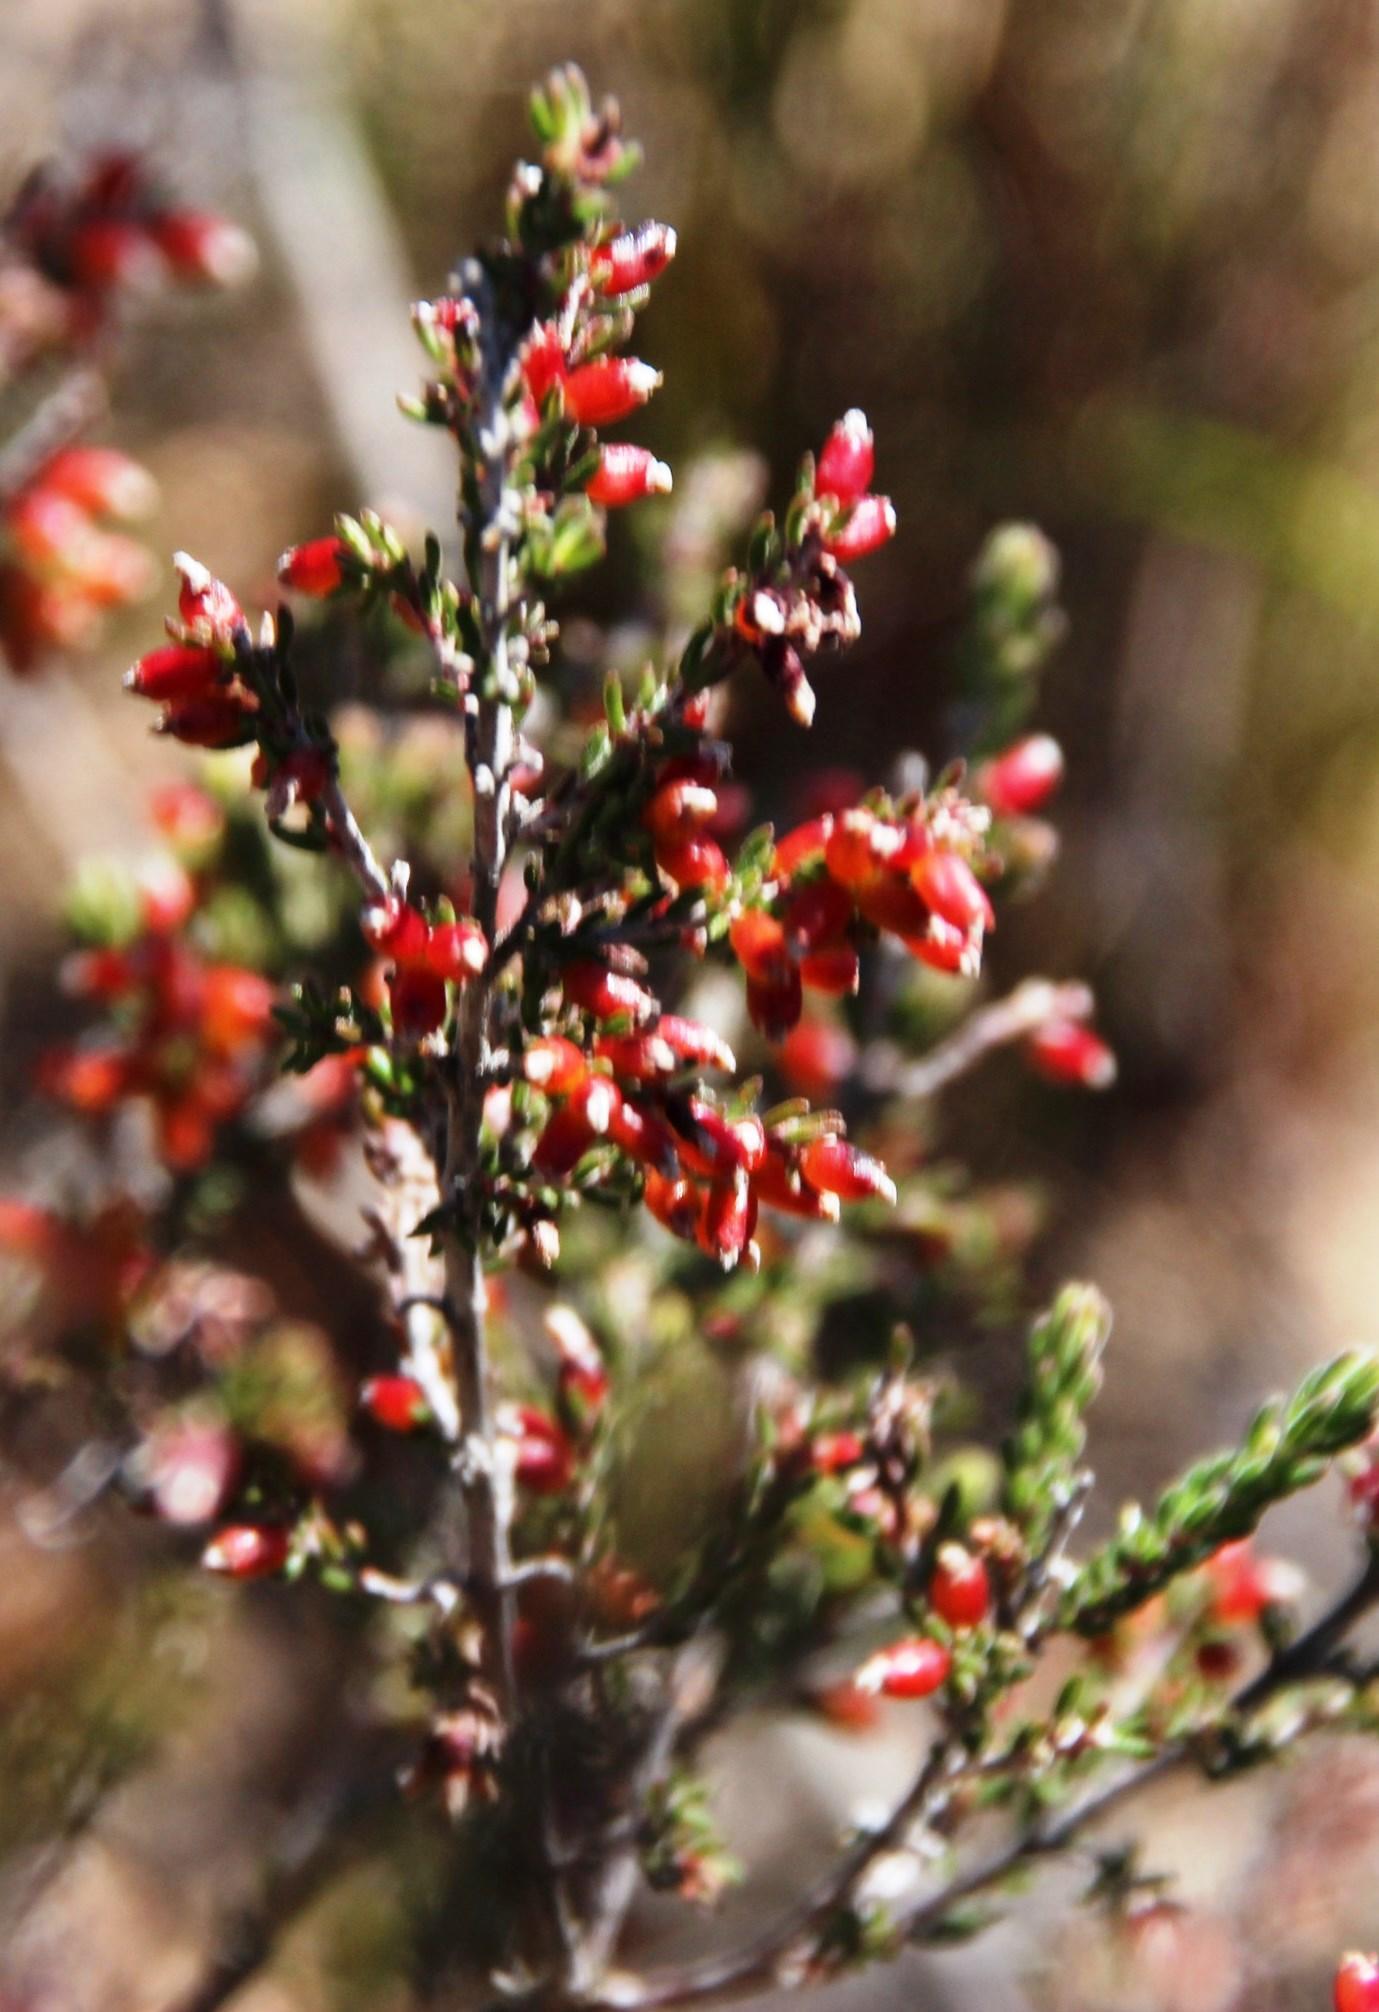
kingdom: Plantae
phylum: Tracheophyta
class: Magnoliopsida
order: Ericales
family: Ericaceae
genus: Erica
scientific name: Erica anguliger
